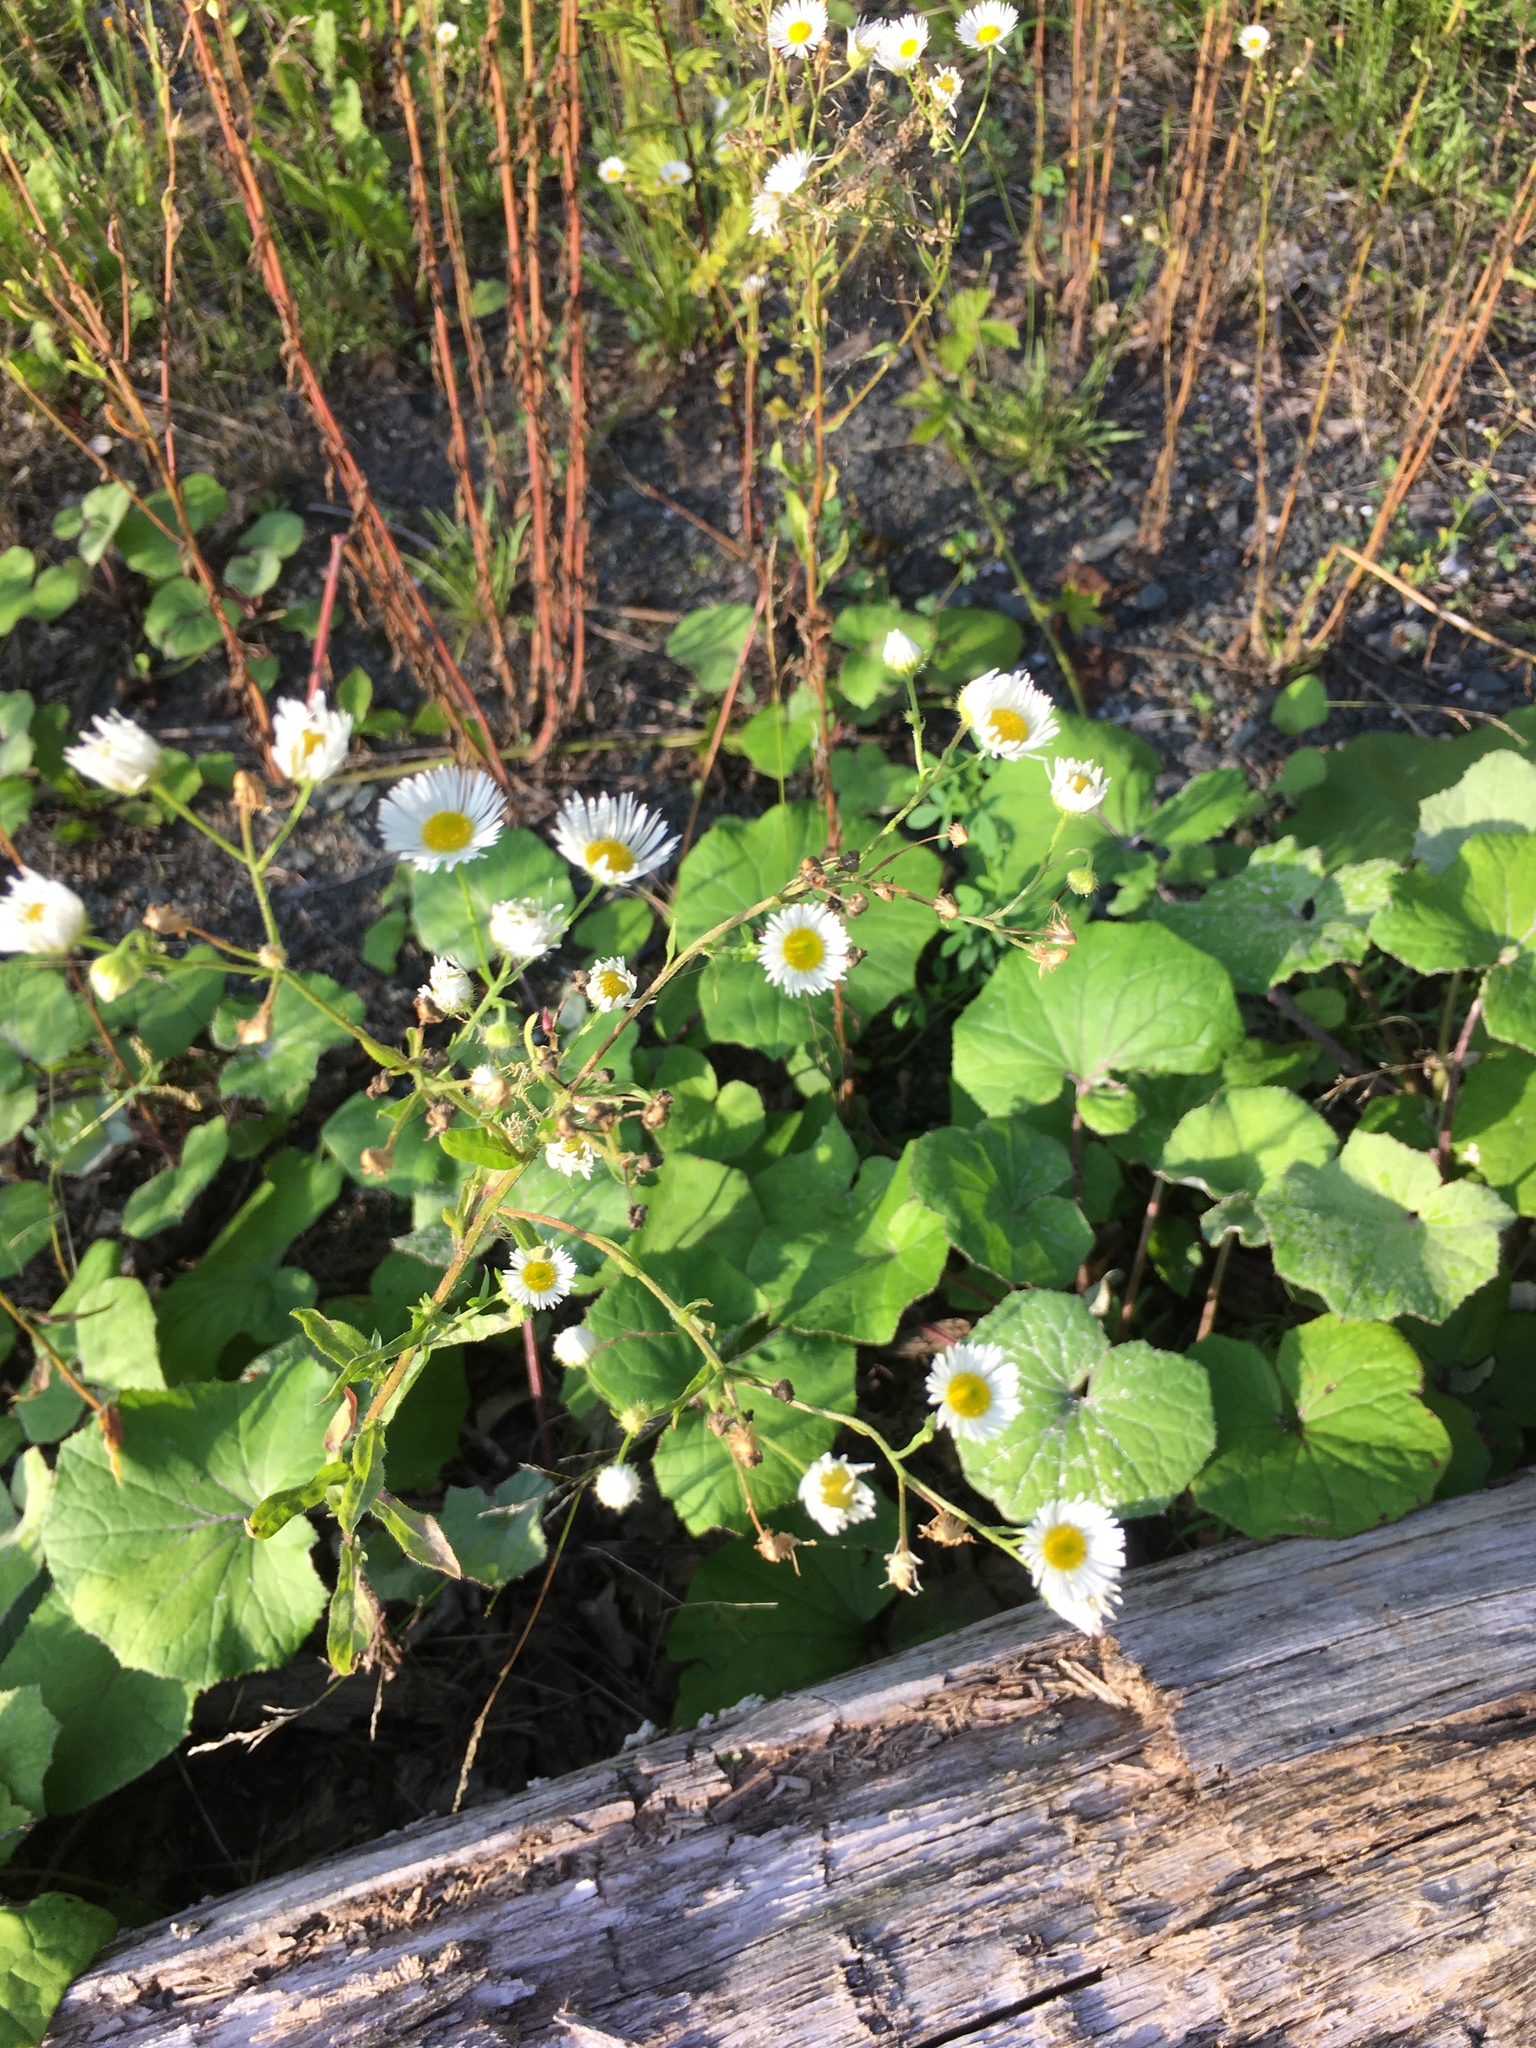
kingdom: Plantae
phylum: Tracheophyta
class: Magnoliopsida
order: Asterales
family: Asteraceae
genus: Erigeron
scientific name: Erigeron annuus
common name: Tall fleabane
